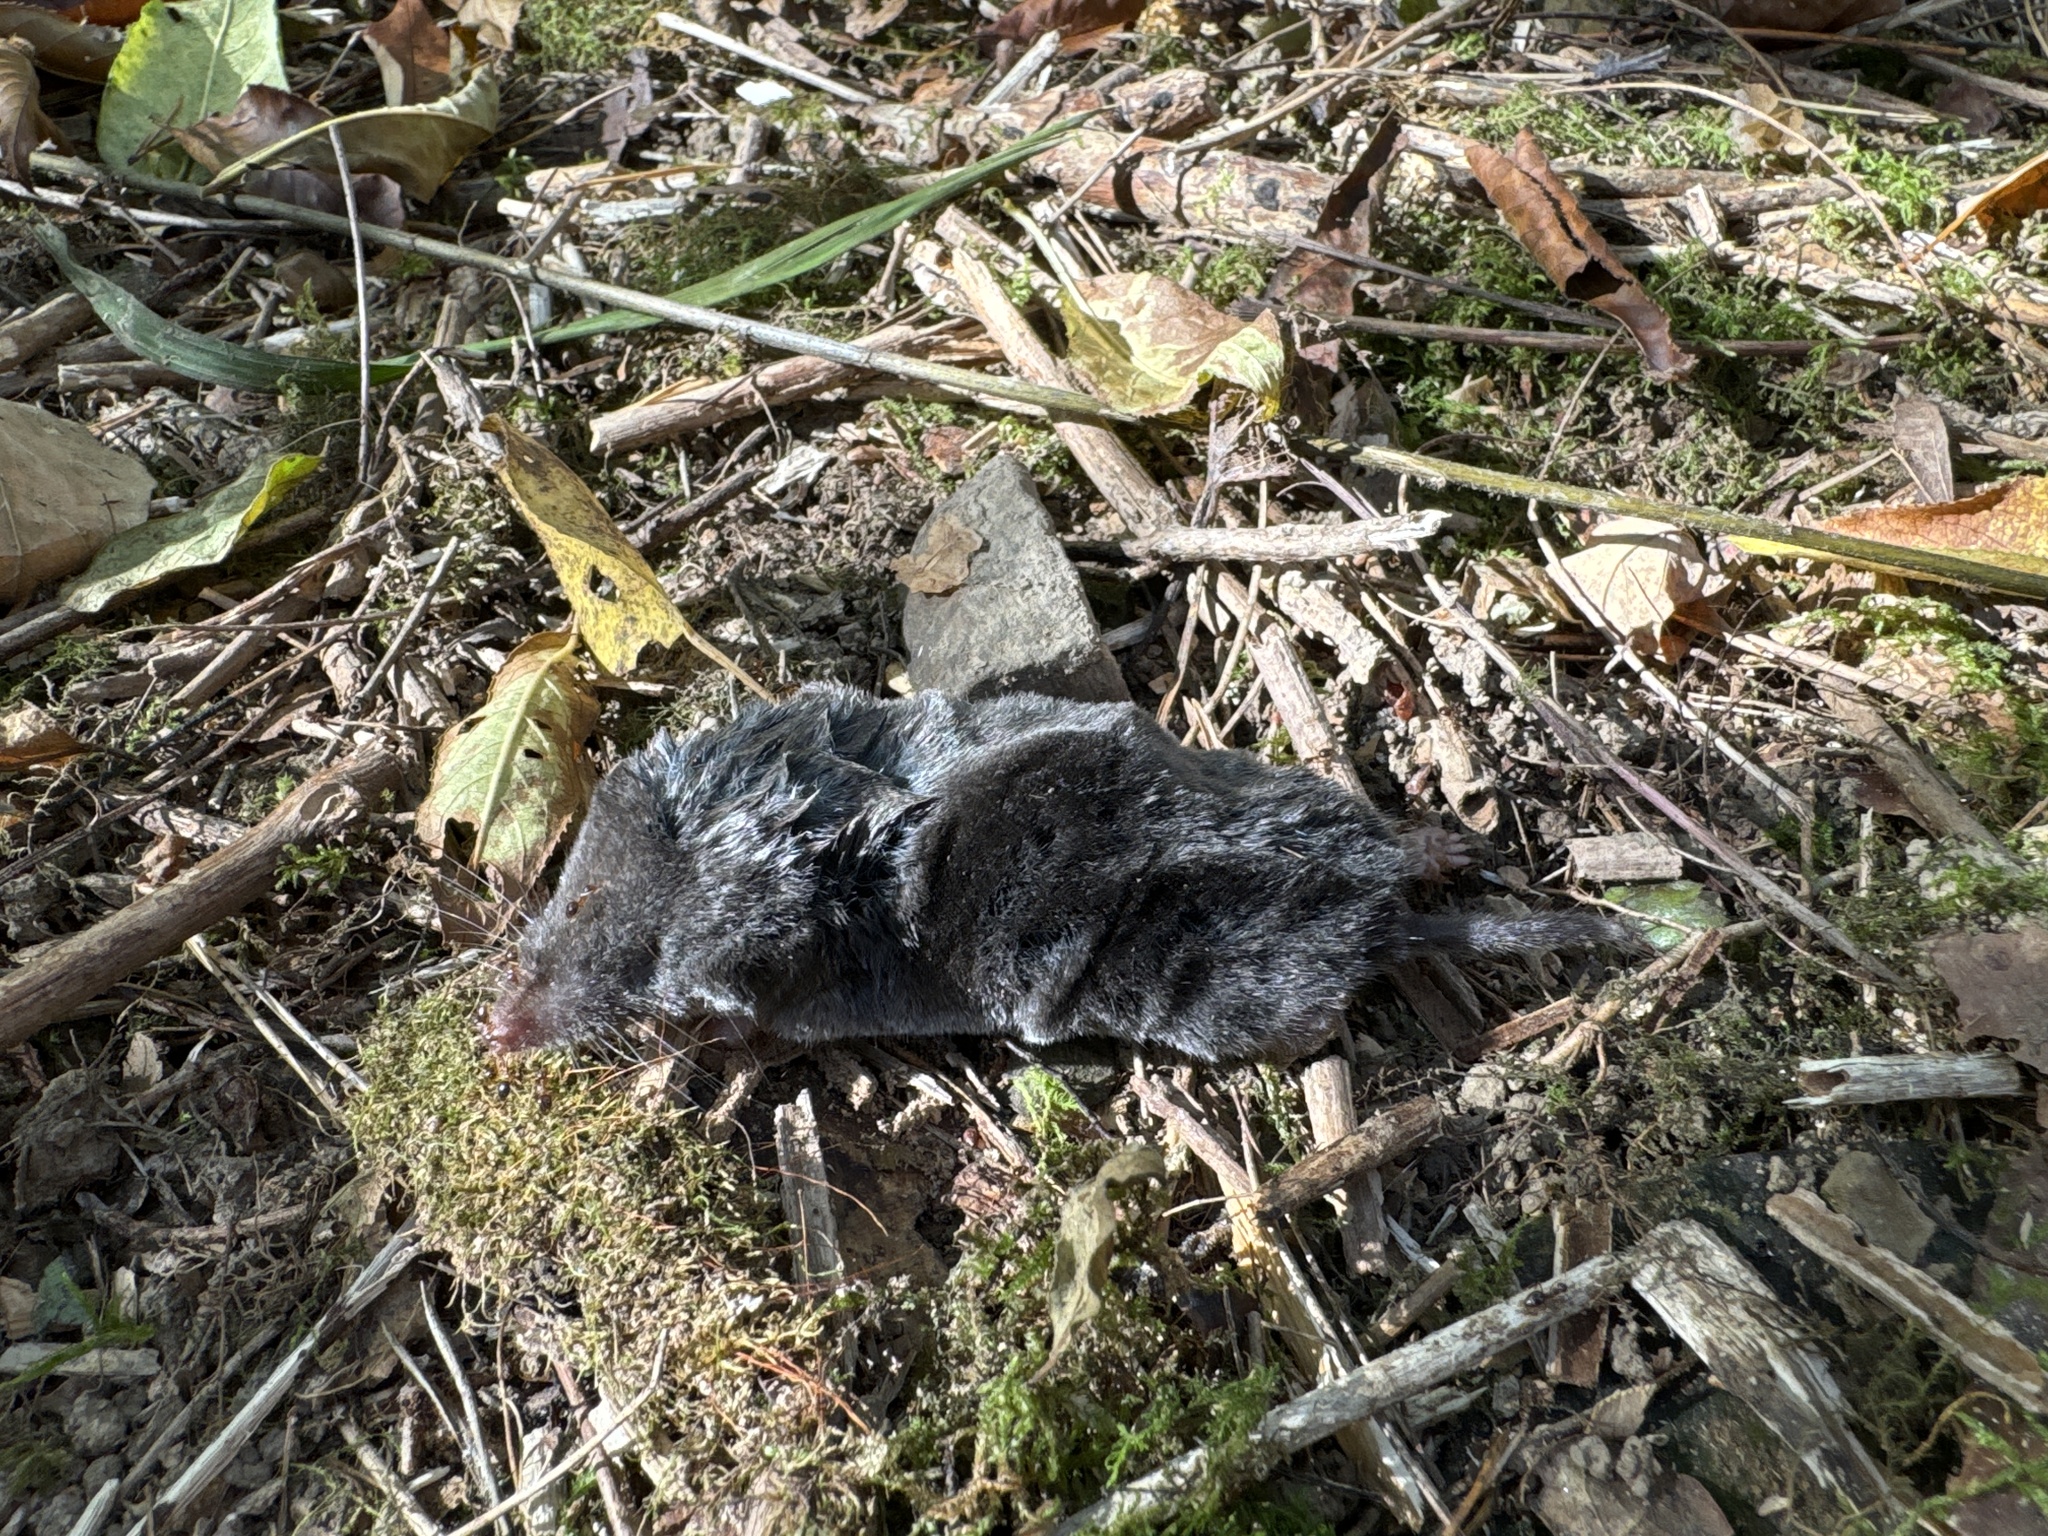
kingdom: Animalia
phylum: Chordata
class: Mammalia
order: Soricomorpha
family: Soricidae
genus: Blarina
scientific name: Blarina brevicauda
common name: Northern short-tailed shrew
